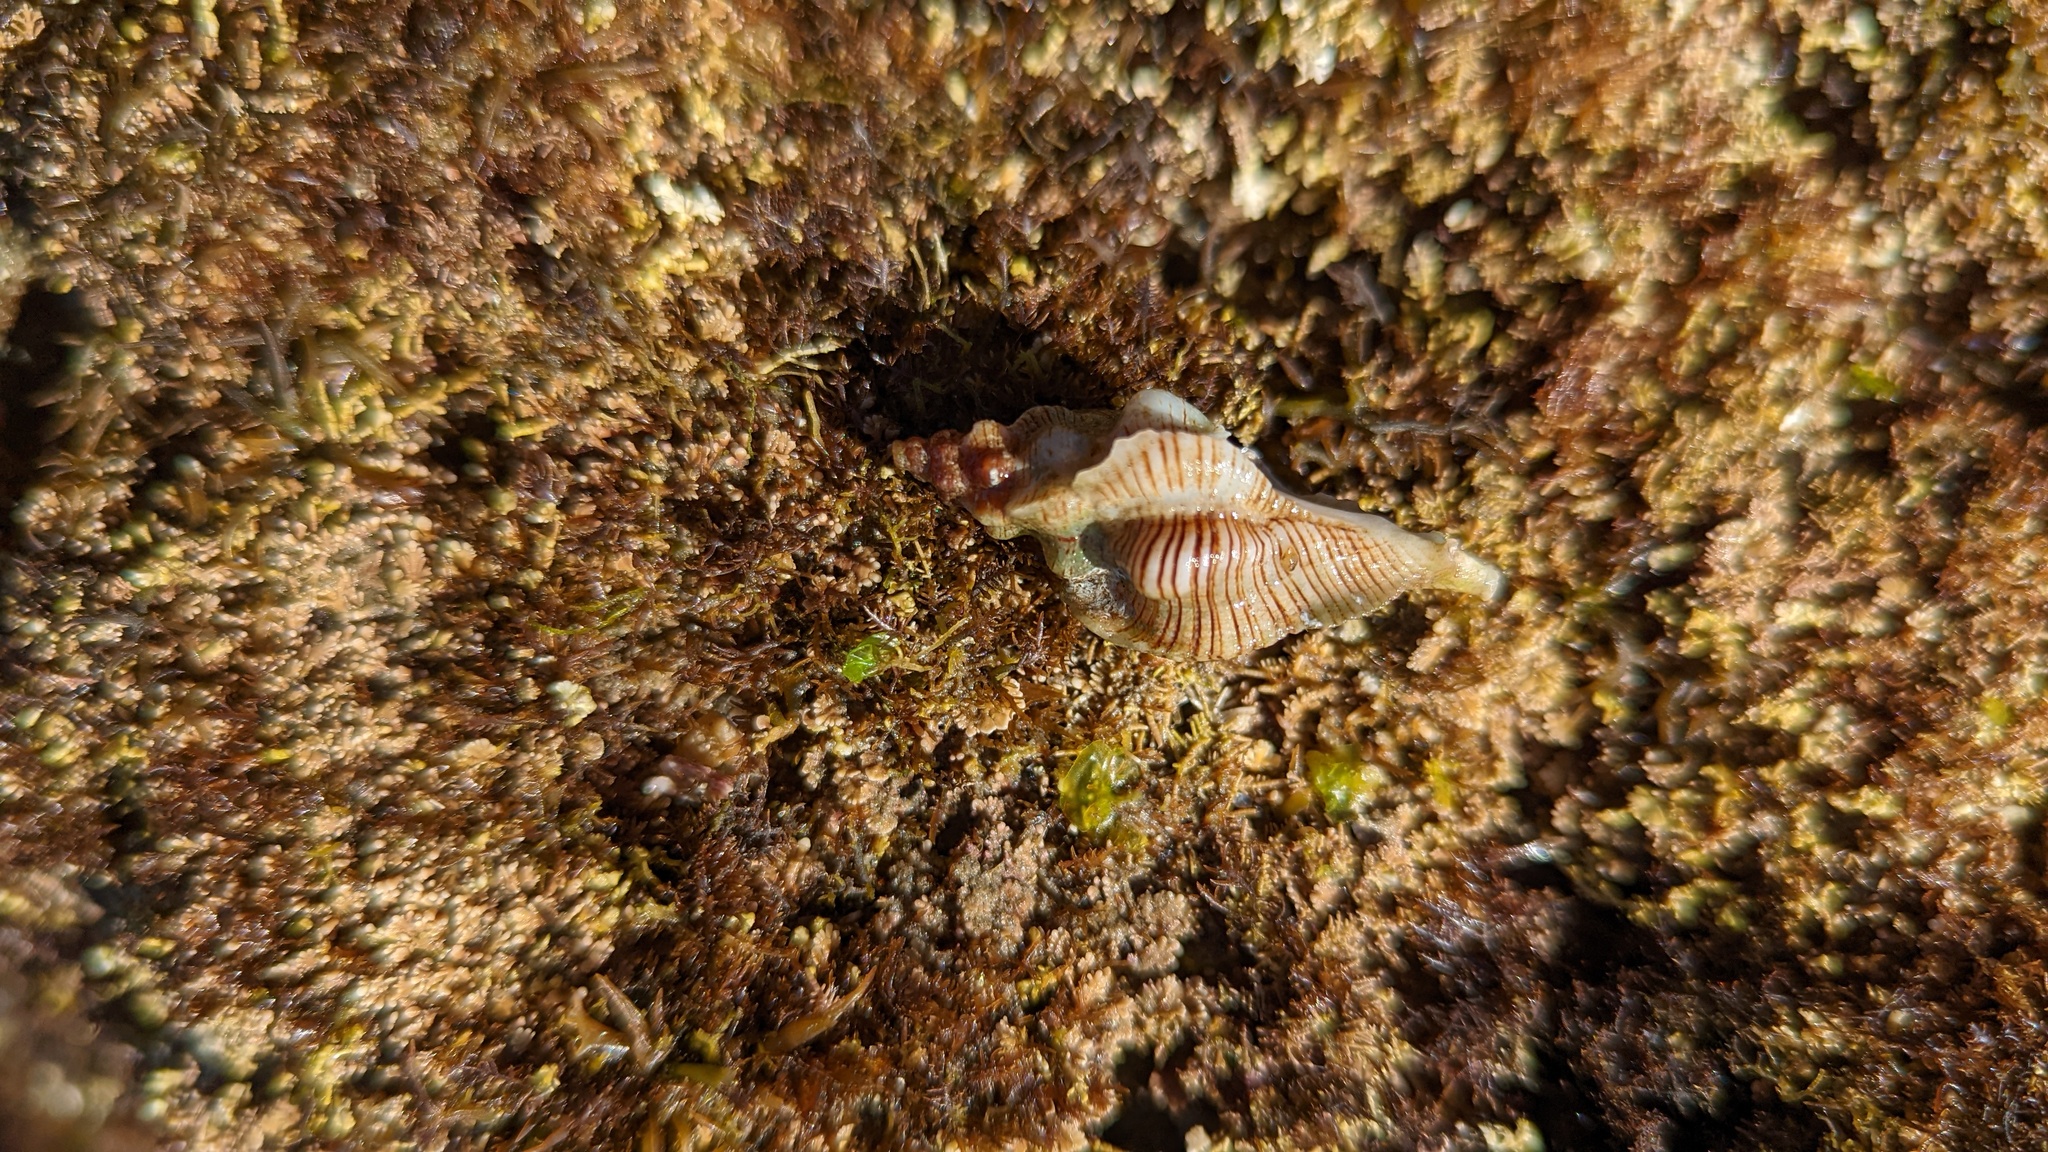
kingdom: Animalia
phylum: Mollusca
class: Gastropoda
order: Neogastropoda
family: Muricidae
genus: Pteropurpura
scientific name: Pteropurpura festiva
